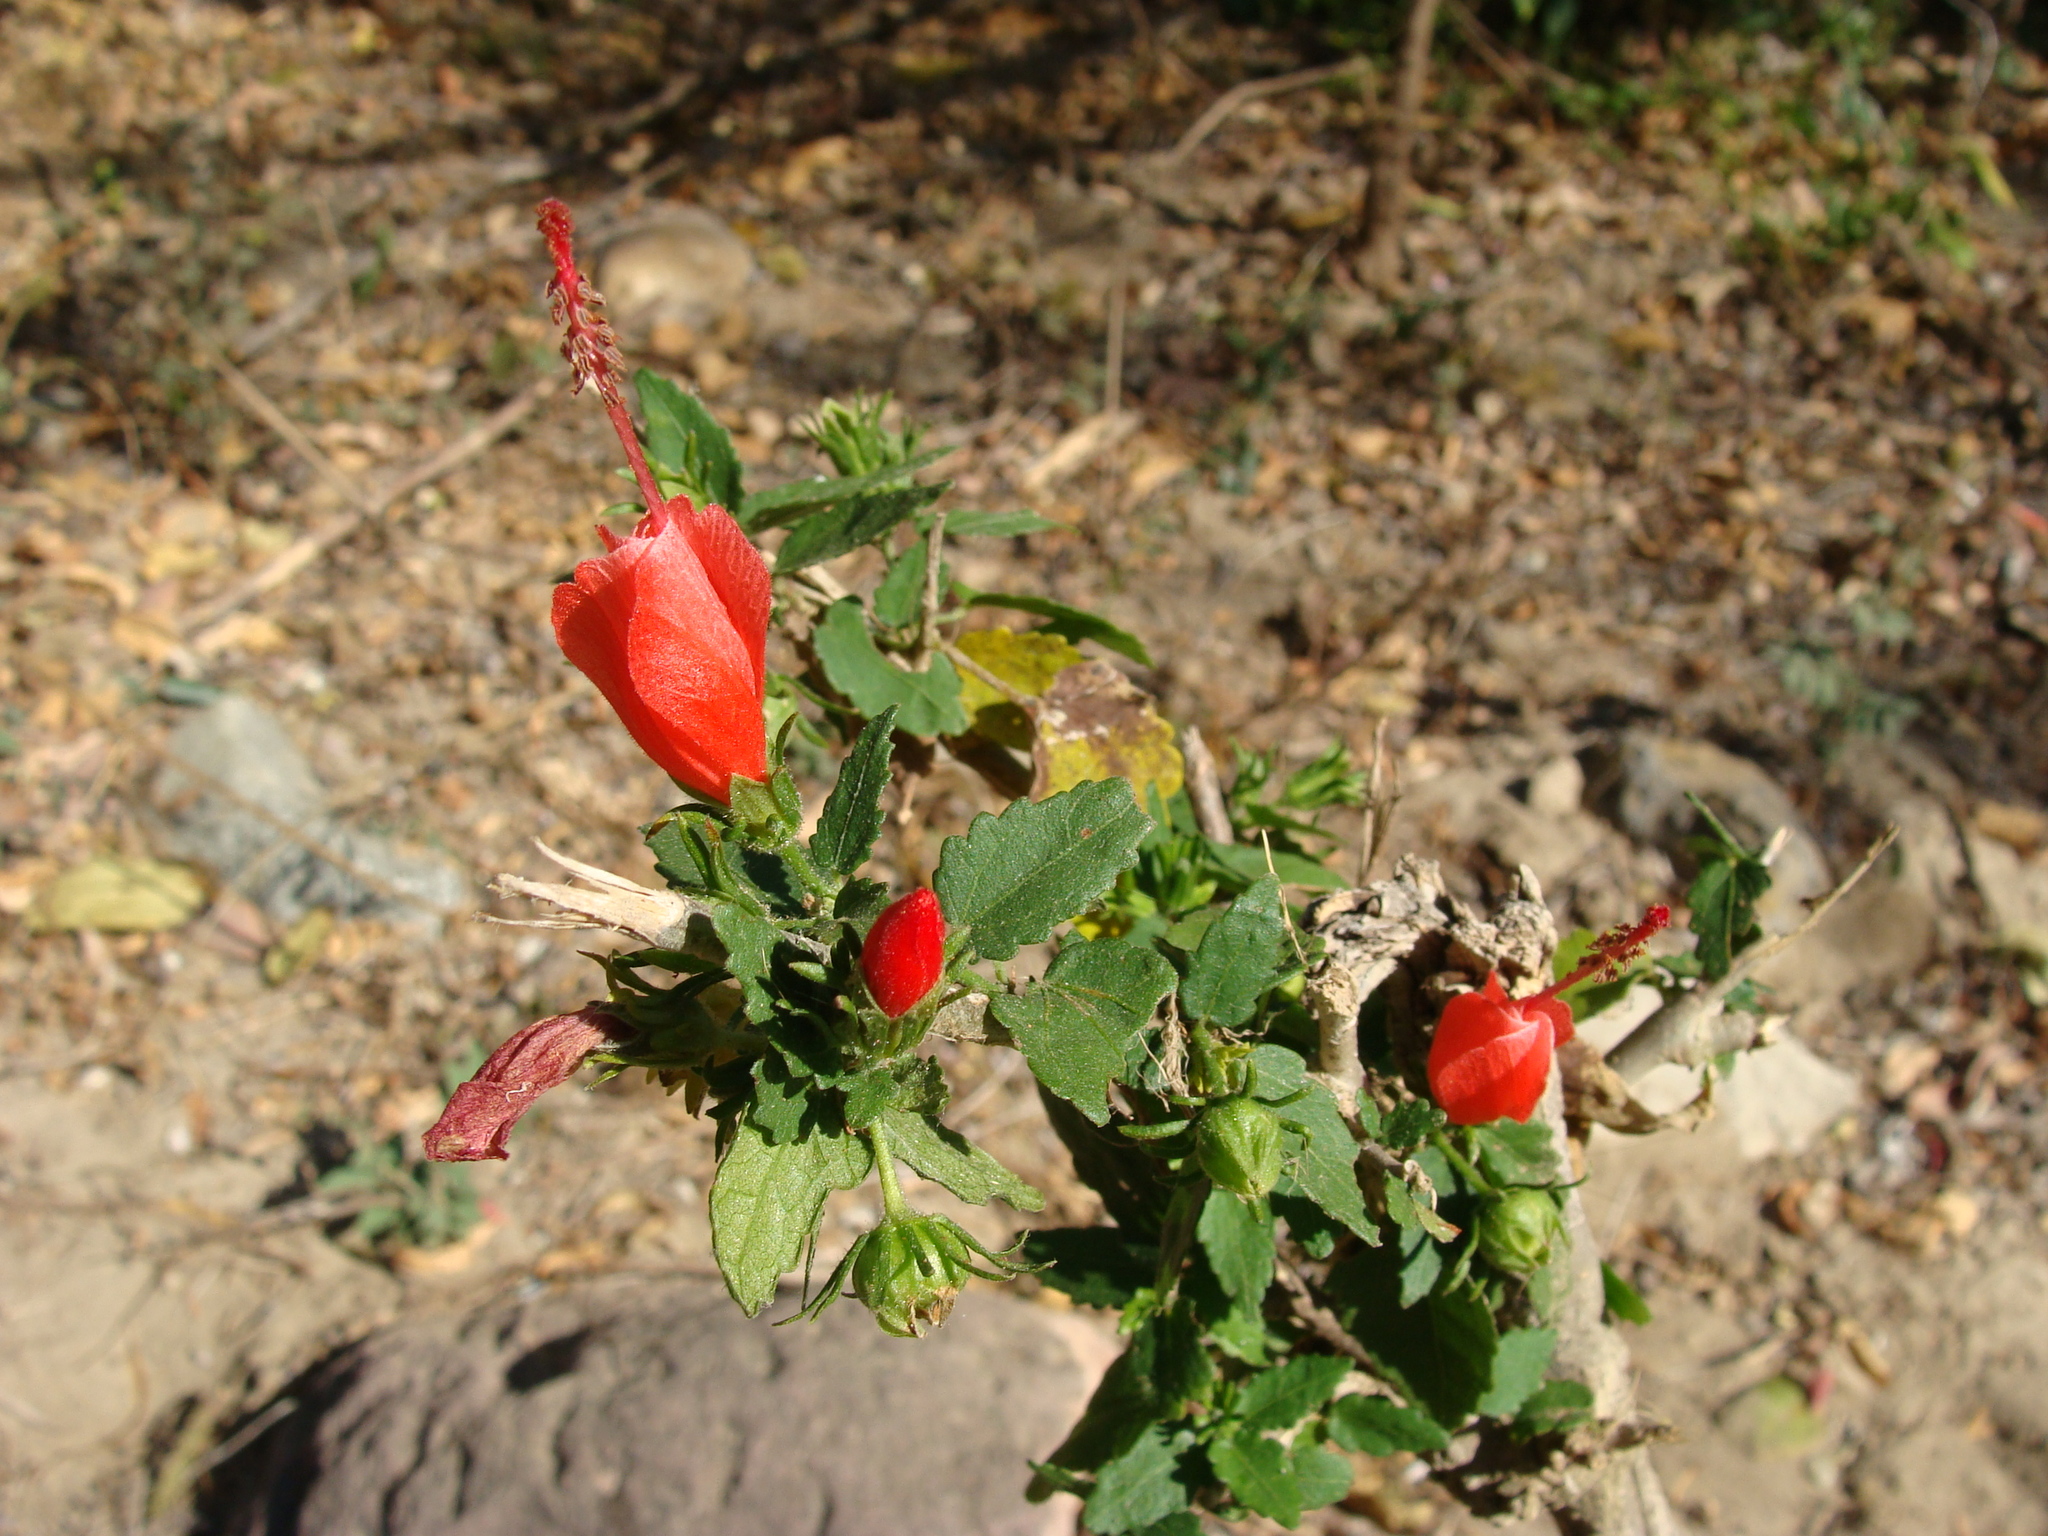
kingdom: Plantae
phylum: Tracheophyta
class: Magnoliopsida
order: Malvales
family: Malvaceae
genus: Malvaviscus
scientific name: Malvaviscus arboreus
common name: Wax mallow
